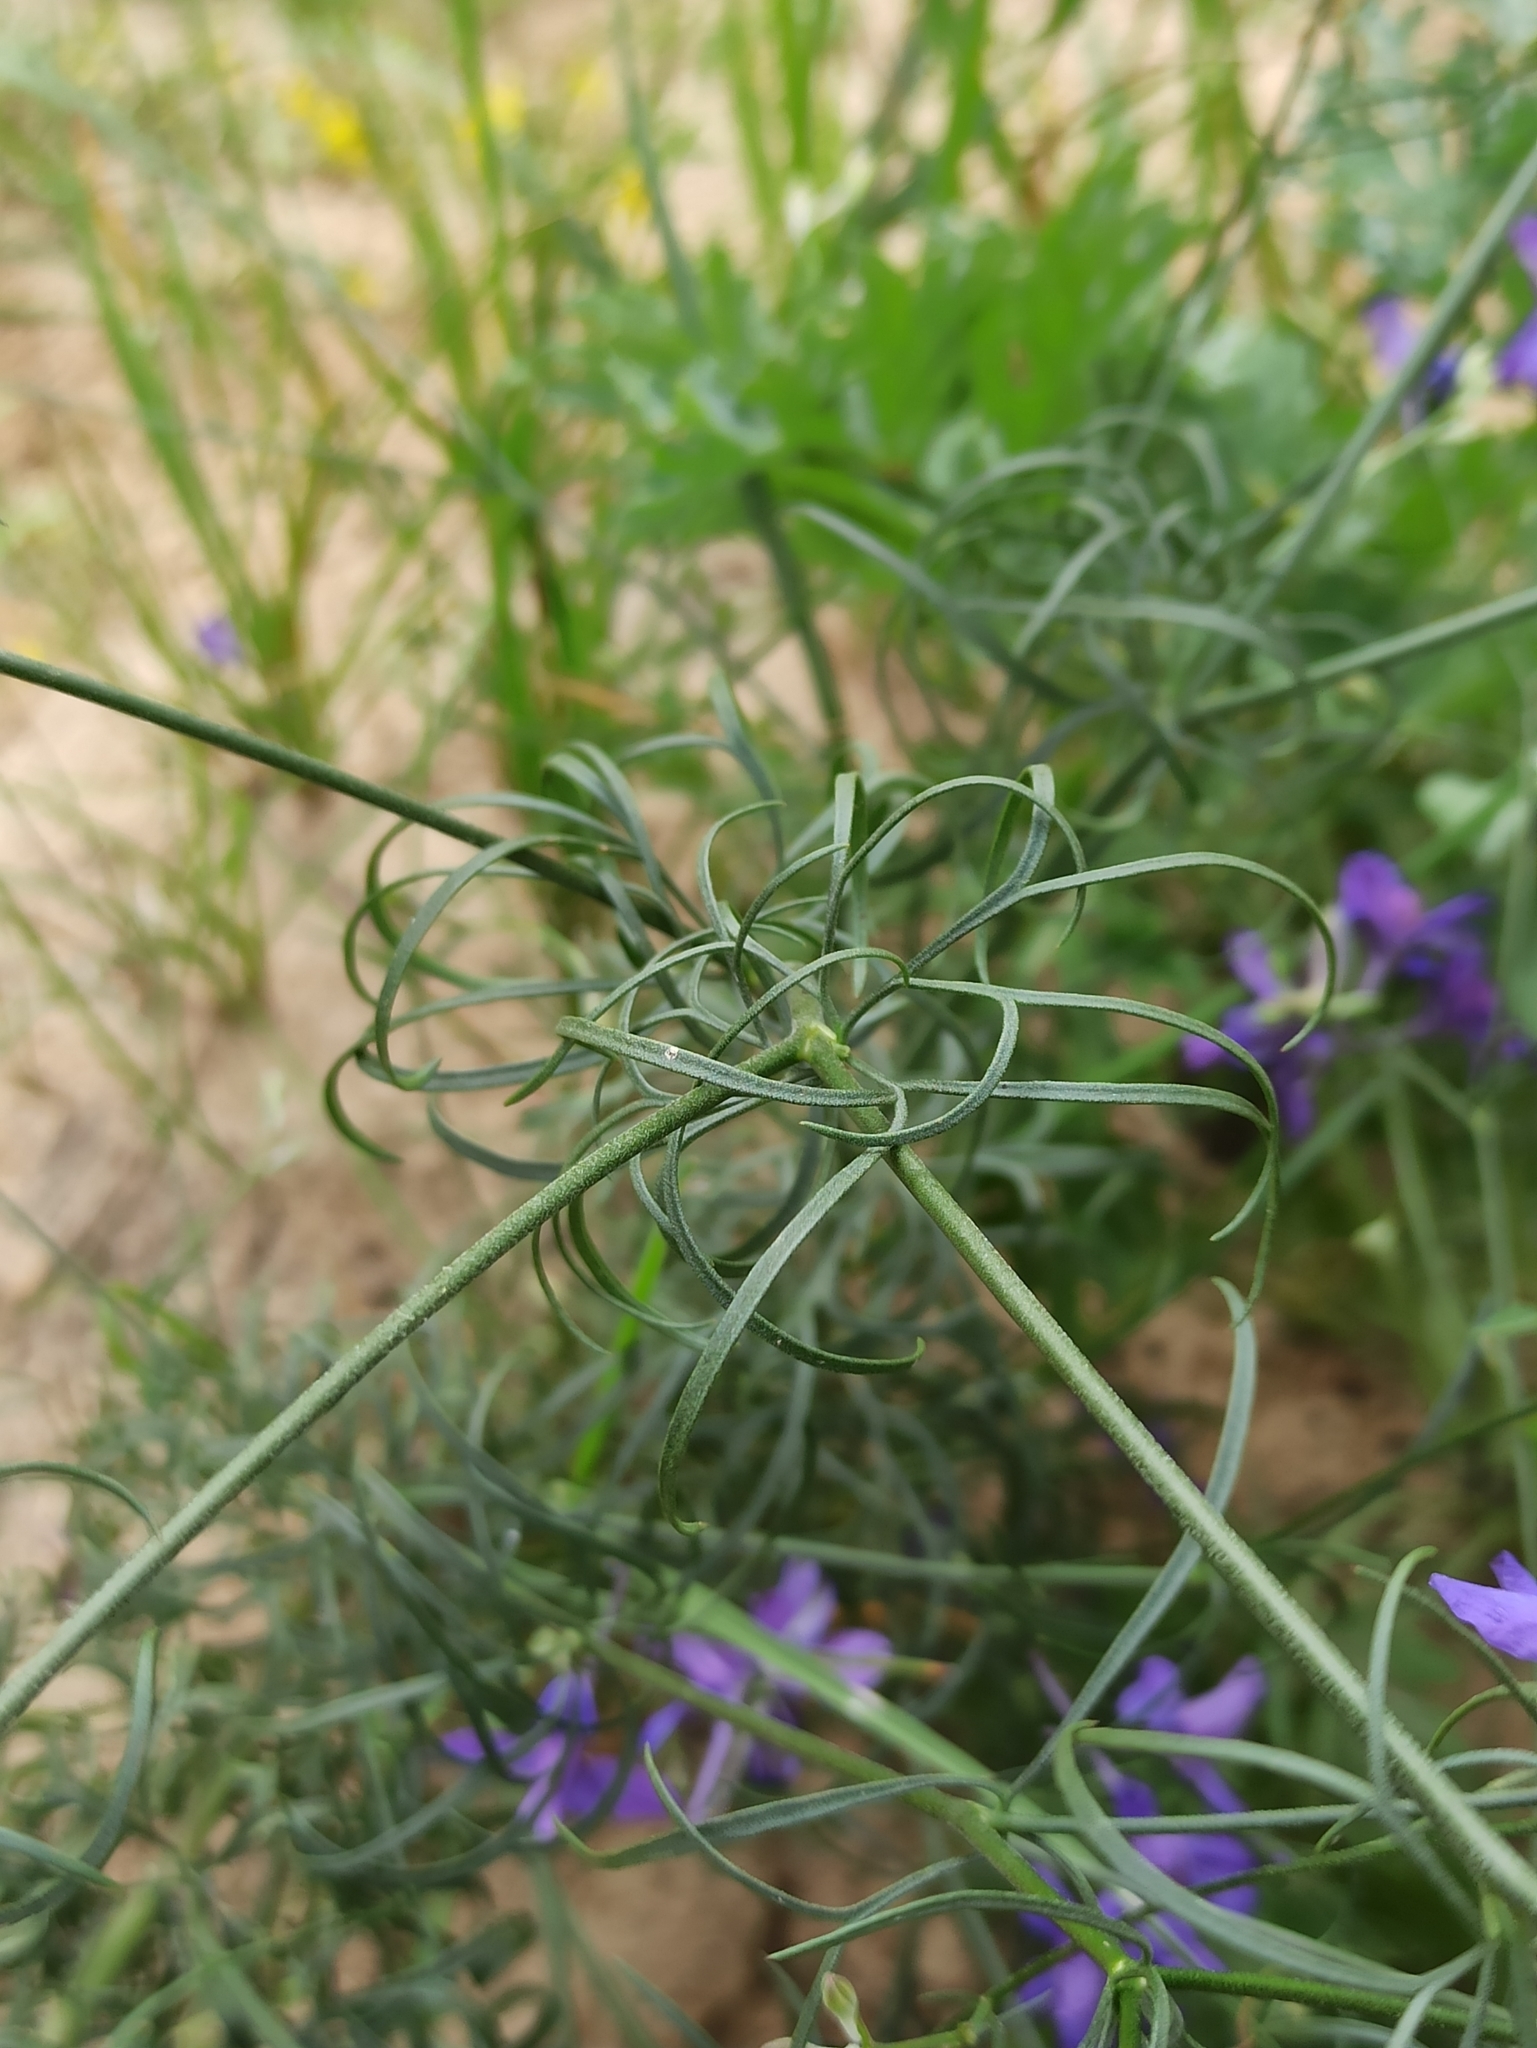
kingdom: Plantae
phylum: Tracheophyta
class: Magnoliopsida
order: Ranunculales
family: Ranunculaceae
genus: Delphinium
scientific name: Delphinium consolida
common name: Branching larkspur
